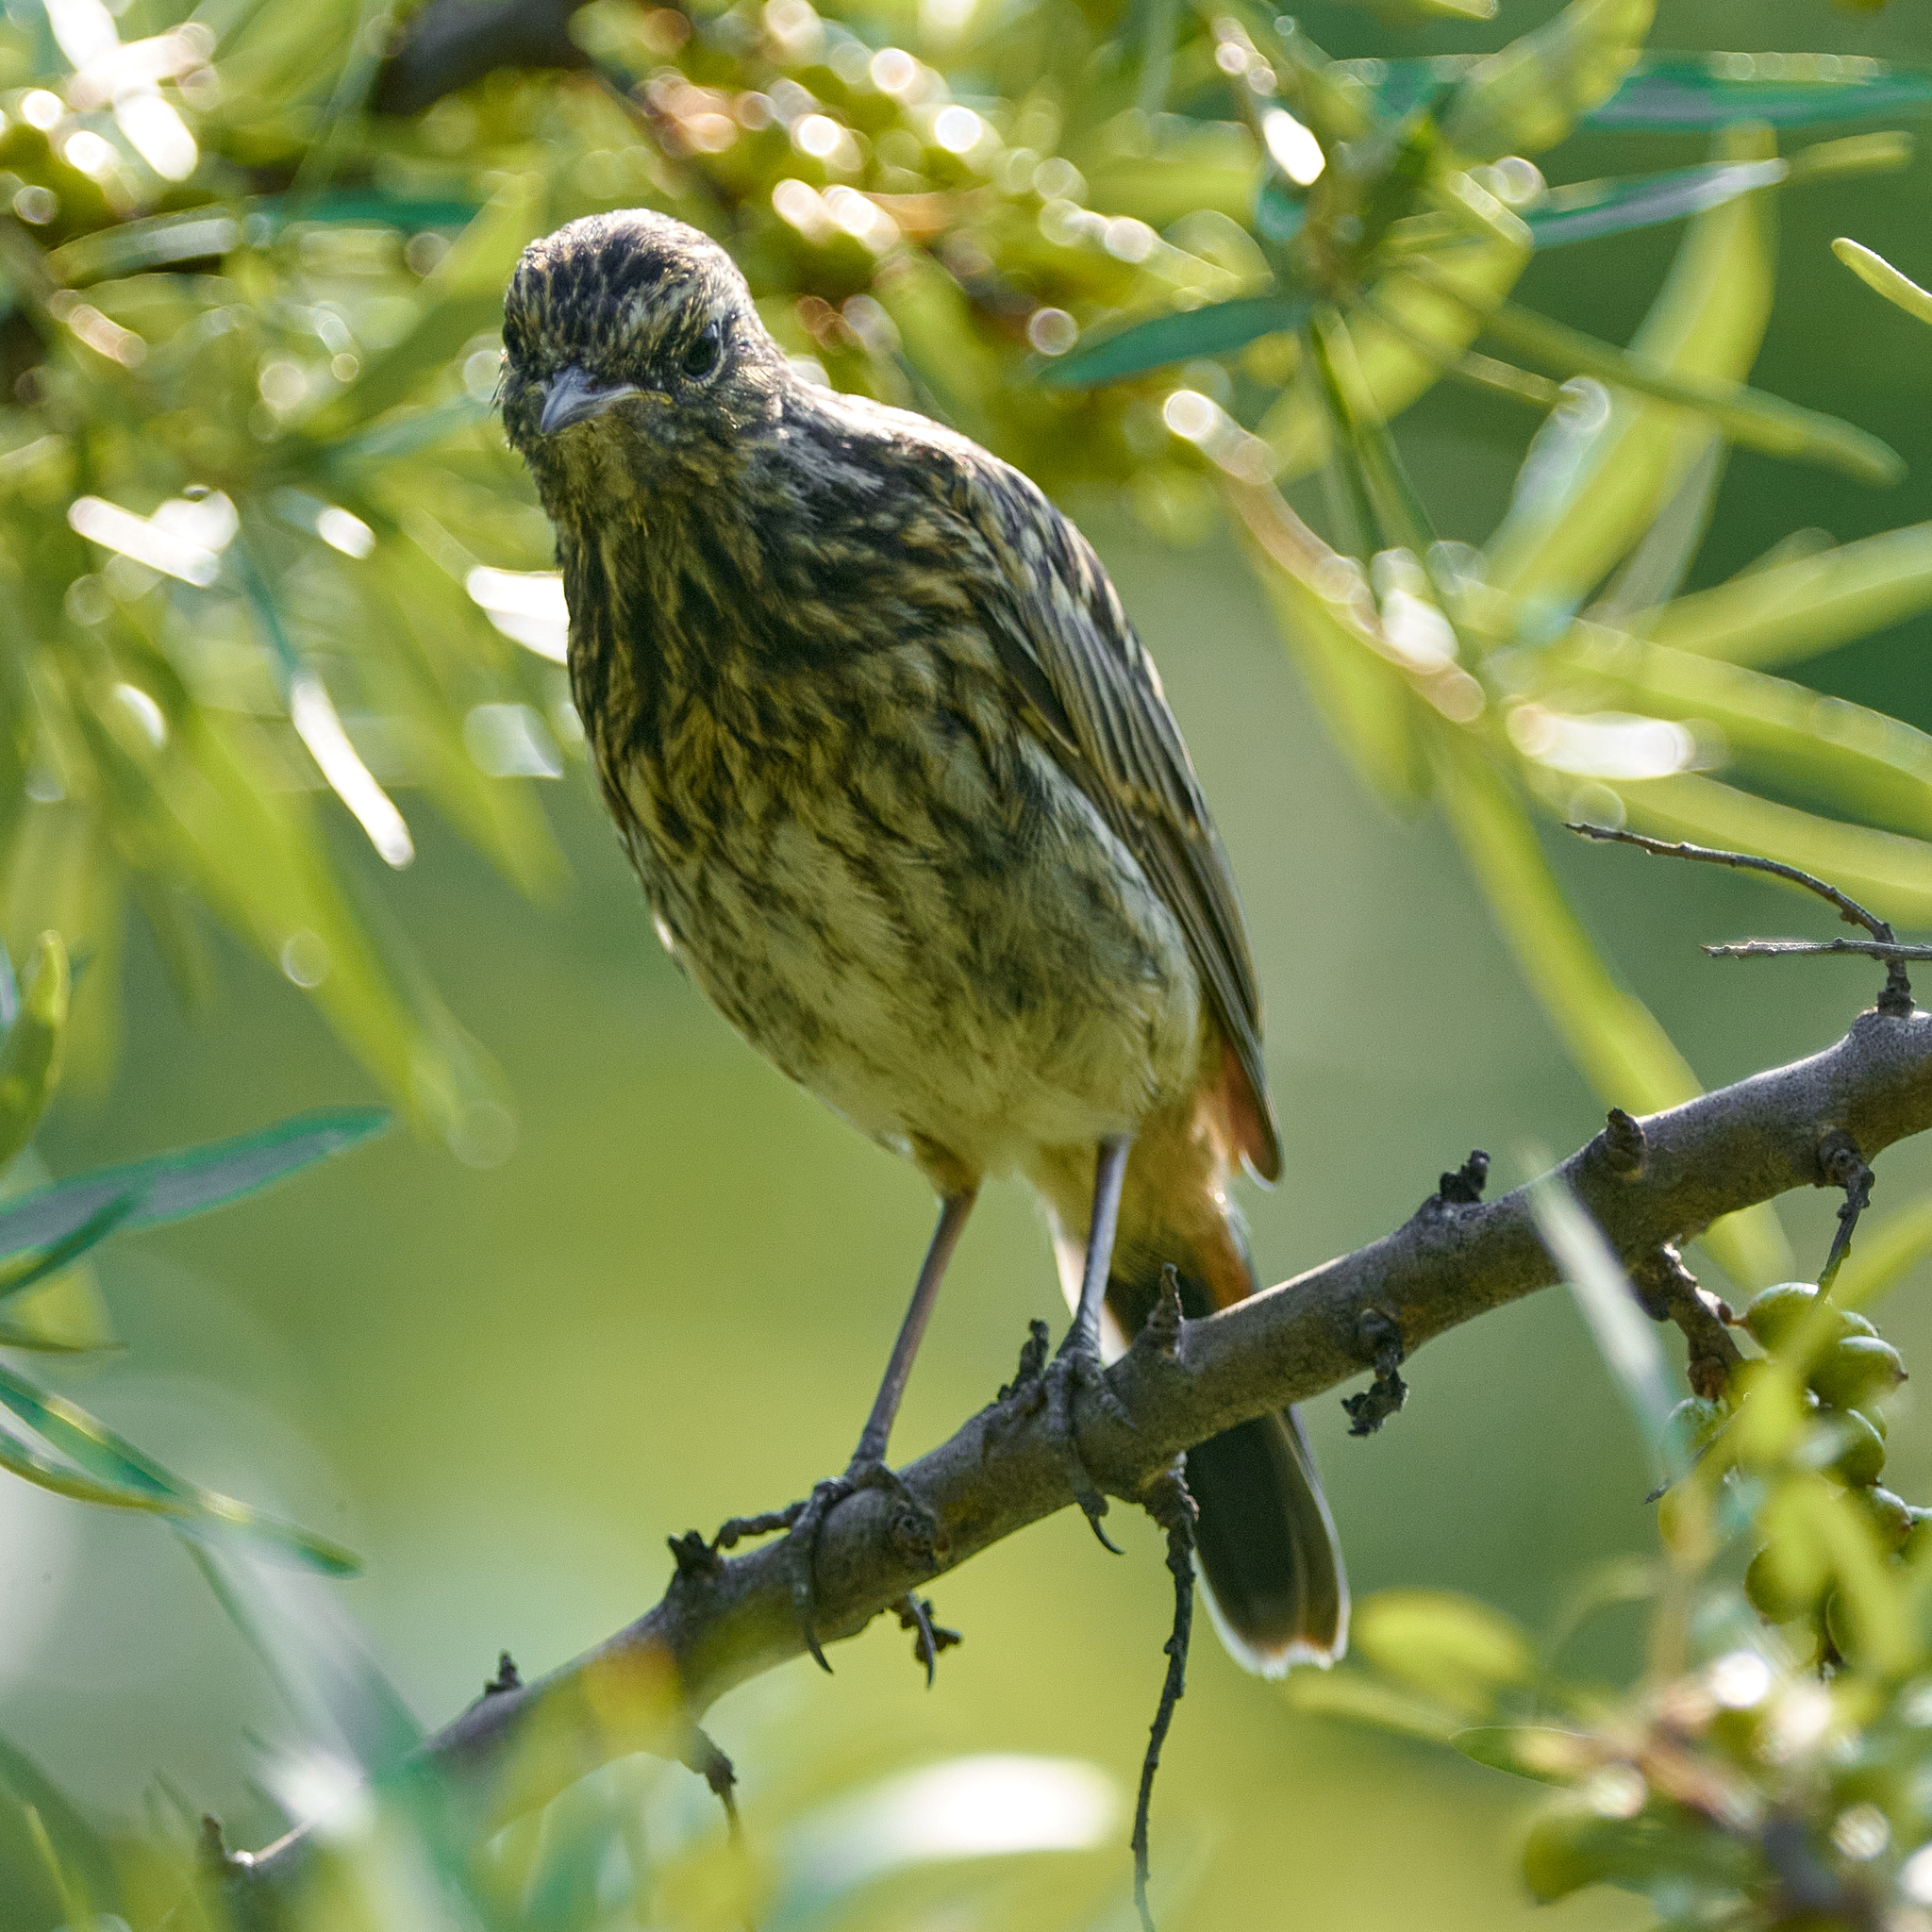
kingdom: Animalia
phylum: Chordata
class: Aves
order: Passeriformes
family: Muscicapidae
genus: Luscinia
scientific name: Luscinia svecica
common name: Bluethroat
